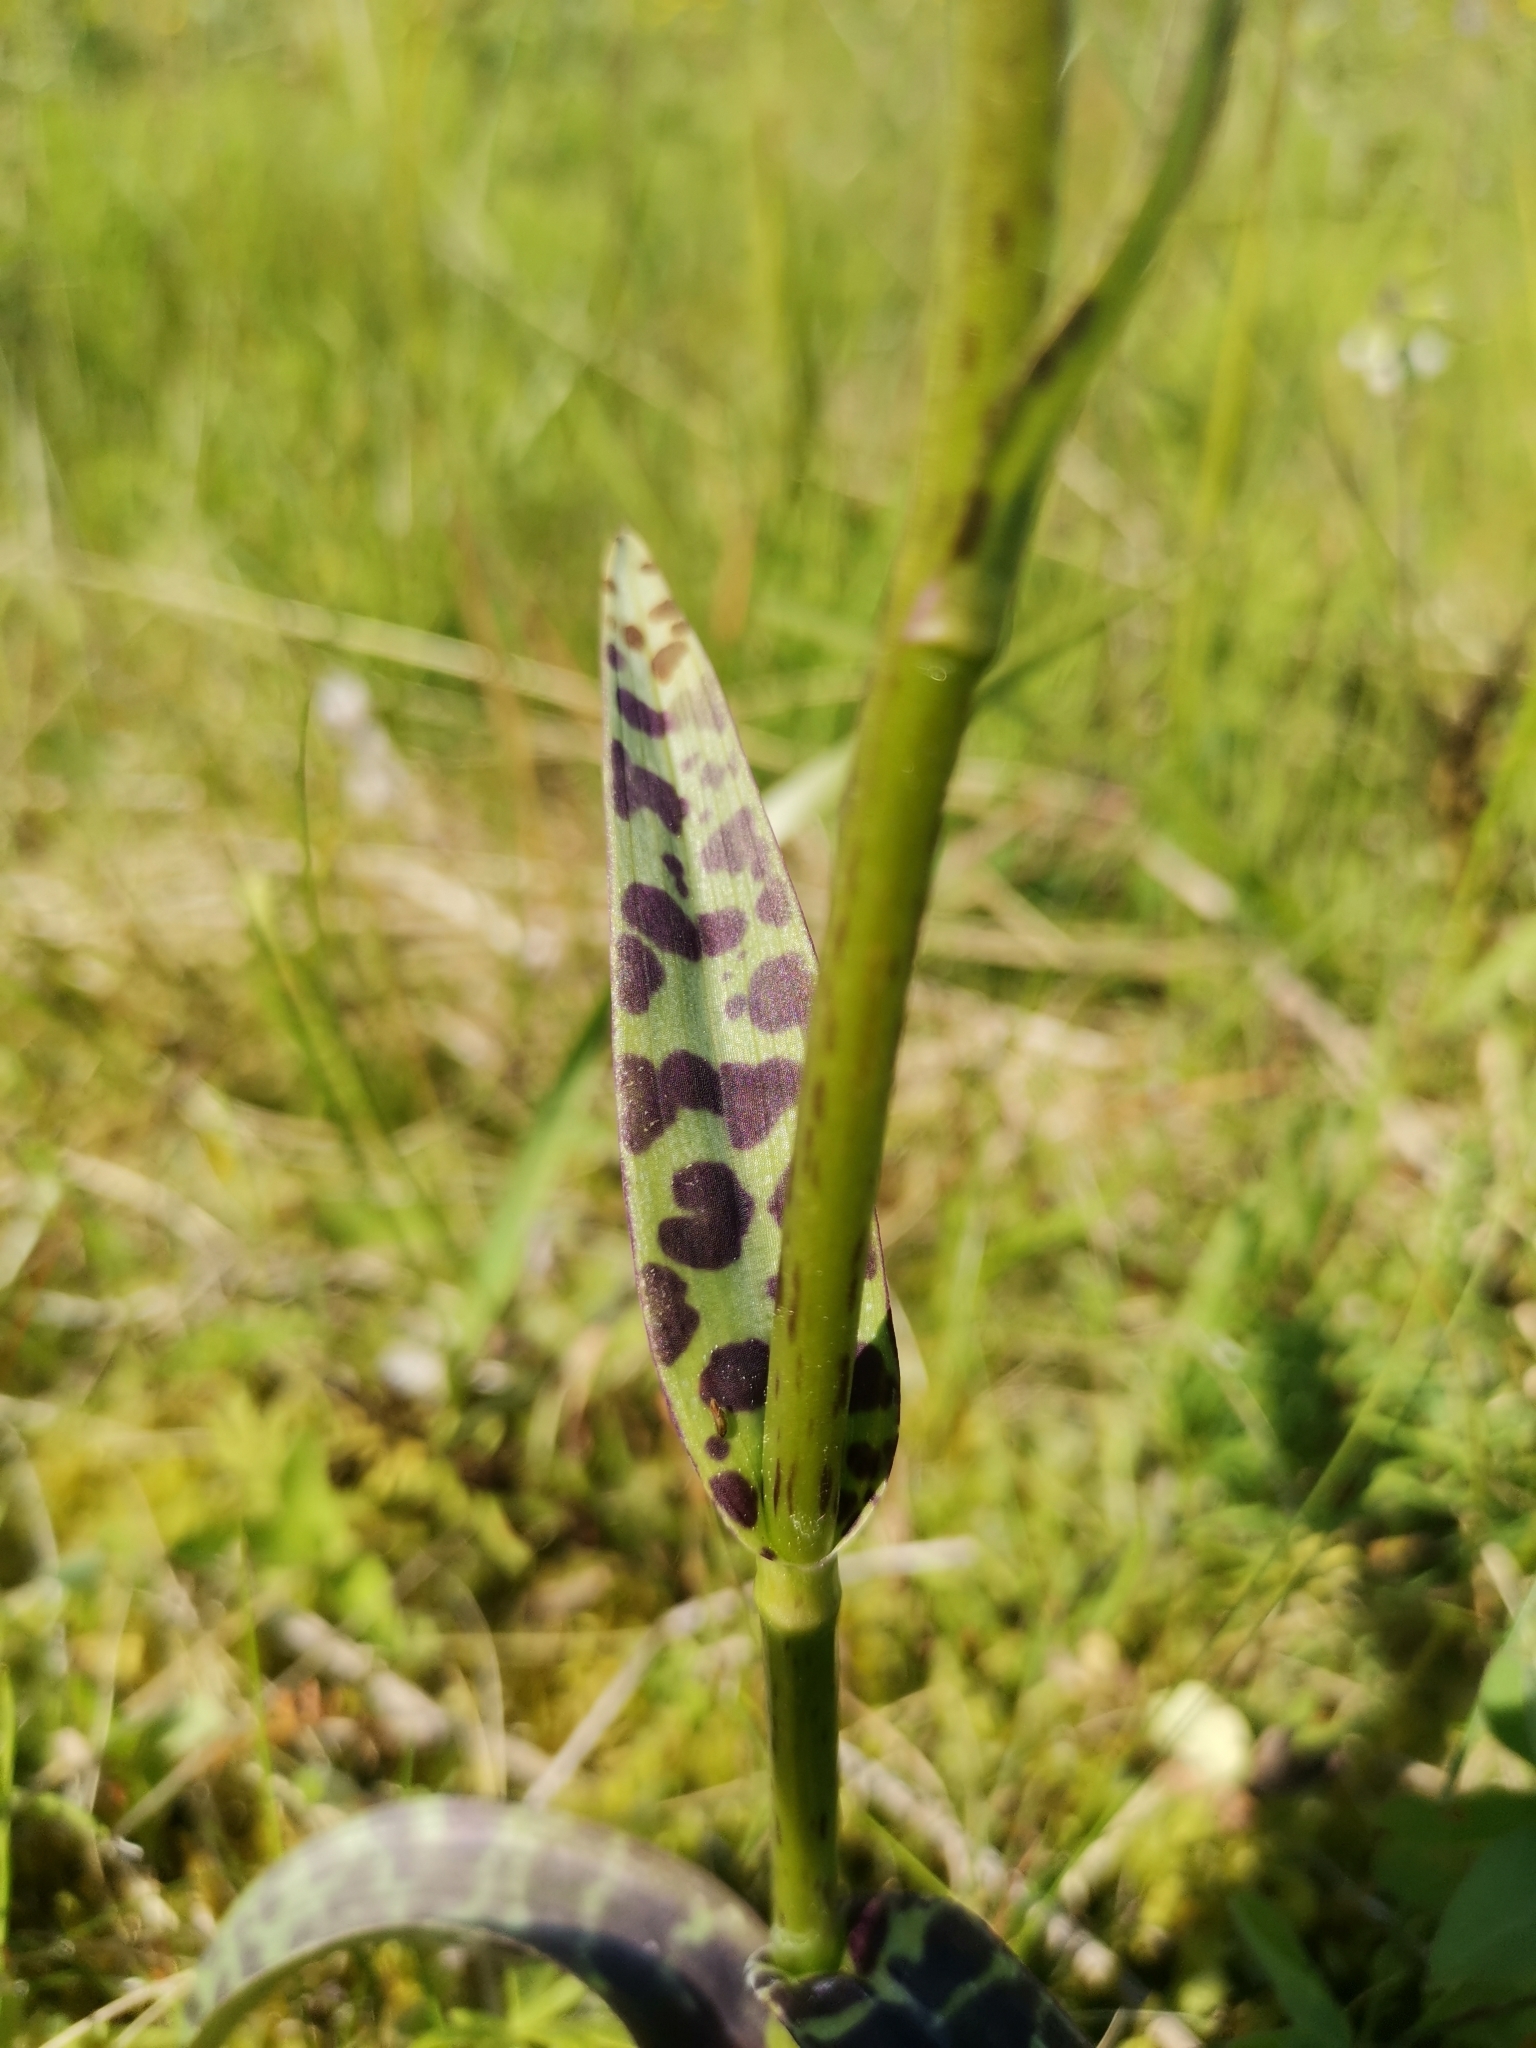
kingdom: Plantae
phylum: Tracheophyta
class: Liliopsida
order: Asparagales
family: Orchidaceae
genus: Dactylorhiza
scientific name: Dactylorhiza maculata
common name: Heath spotted-orchid
